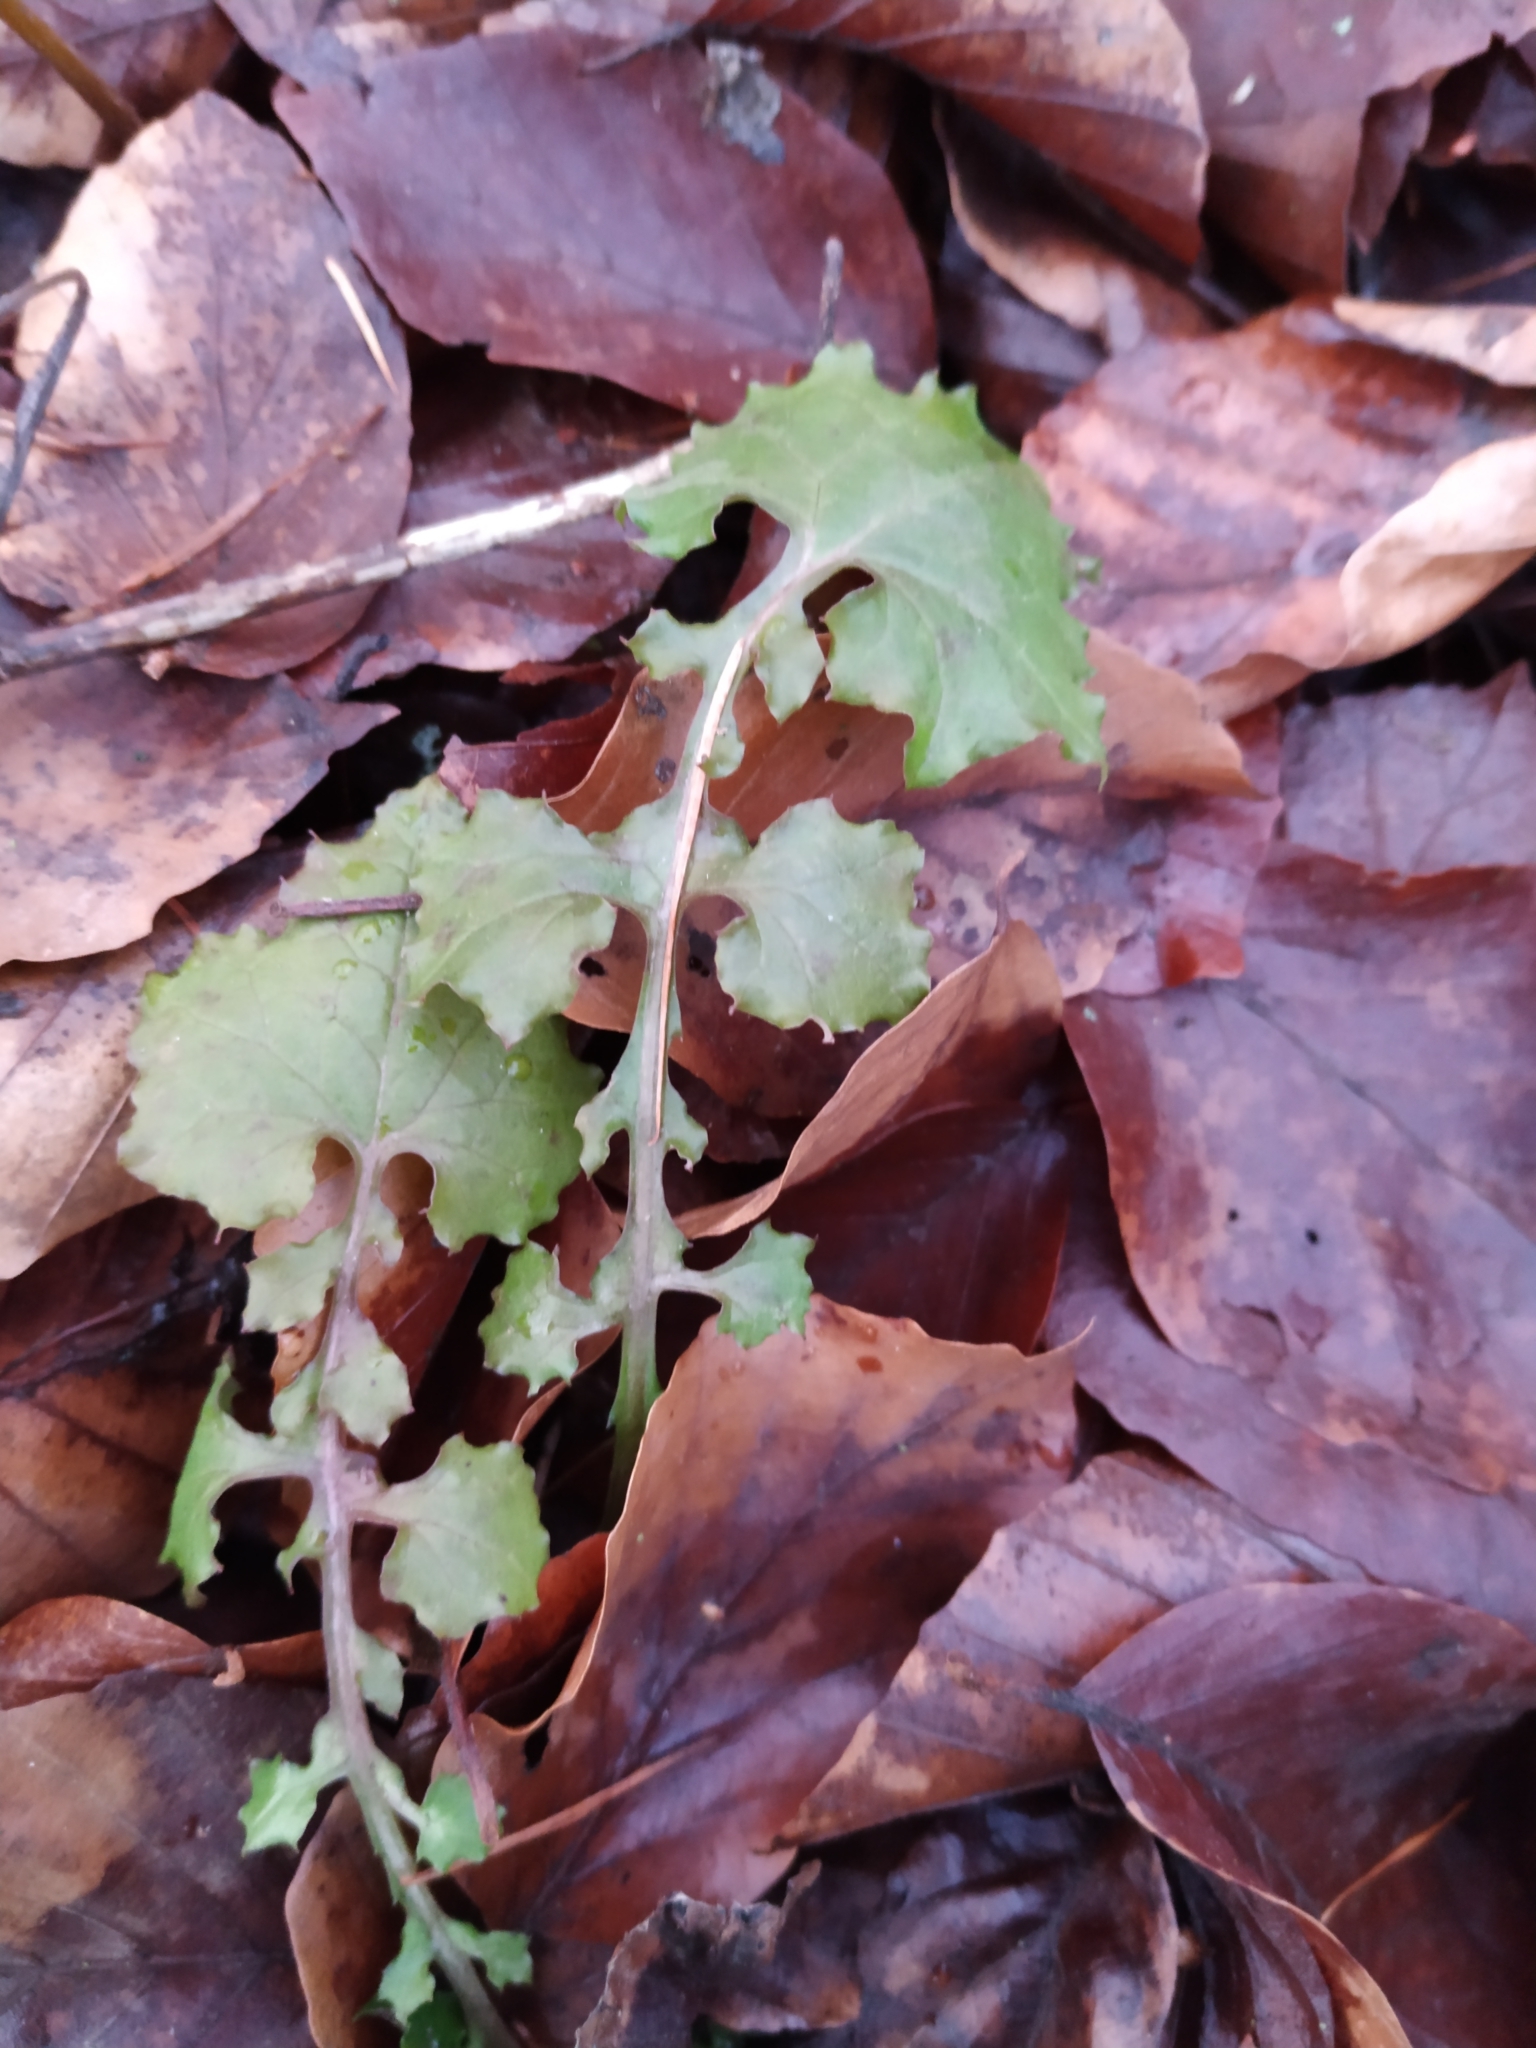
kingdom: Plantae
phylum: Tracheophyta
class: Magnoliopsida
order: Asterales
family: Asteraceae
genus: Mycelis
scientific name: Mycelis muralis
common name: Wall lettuce
